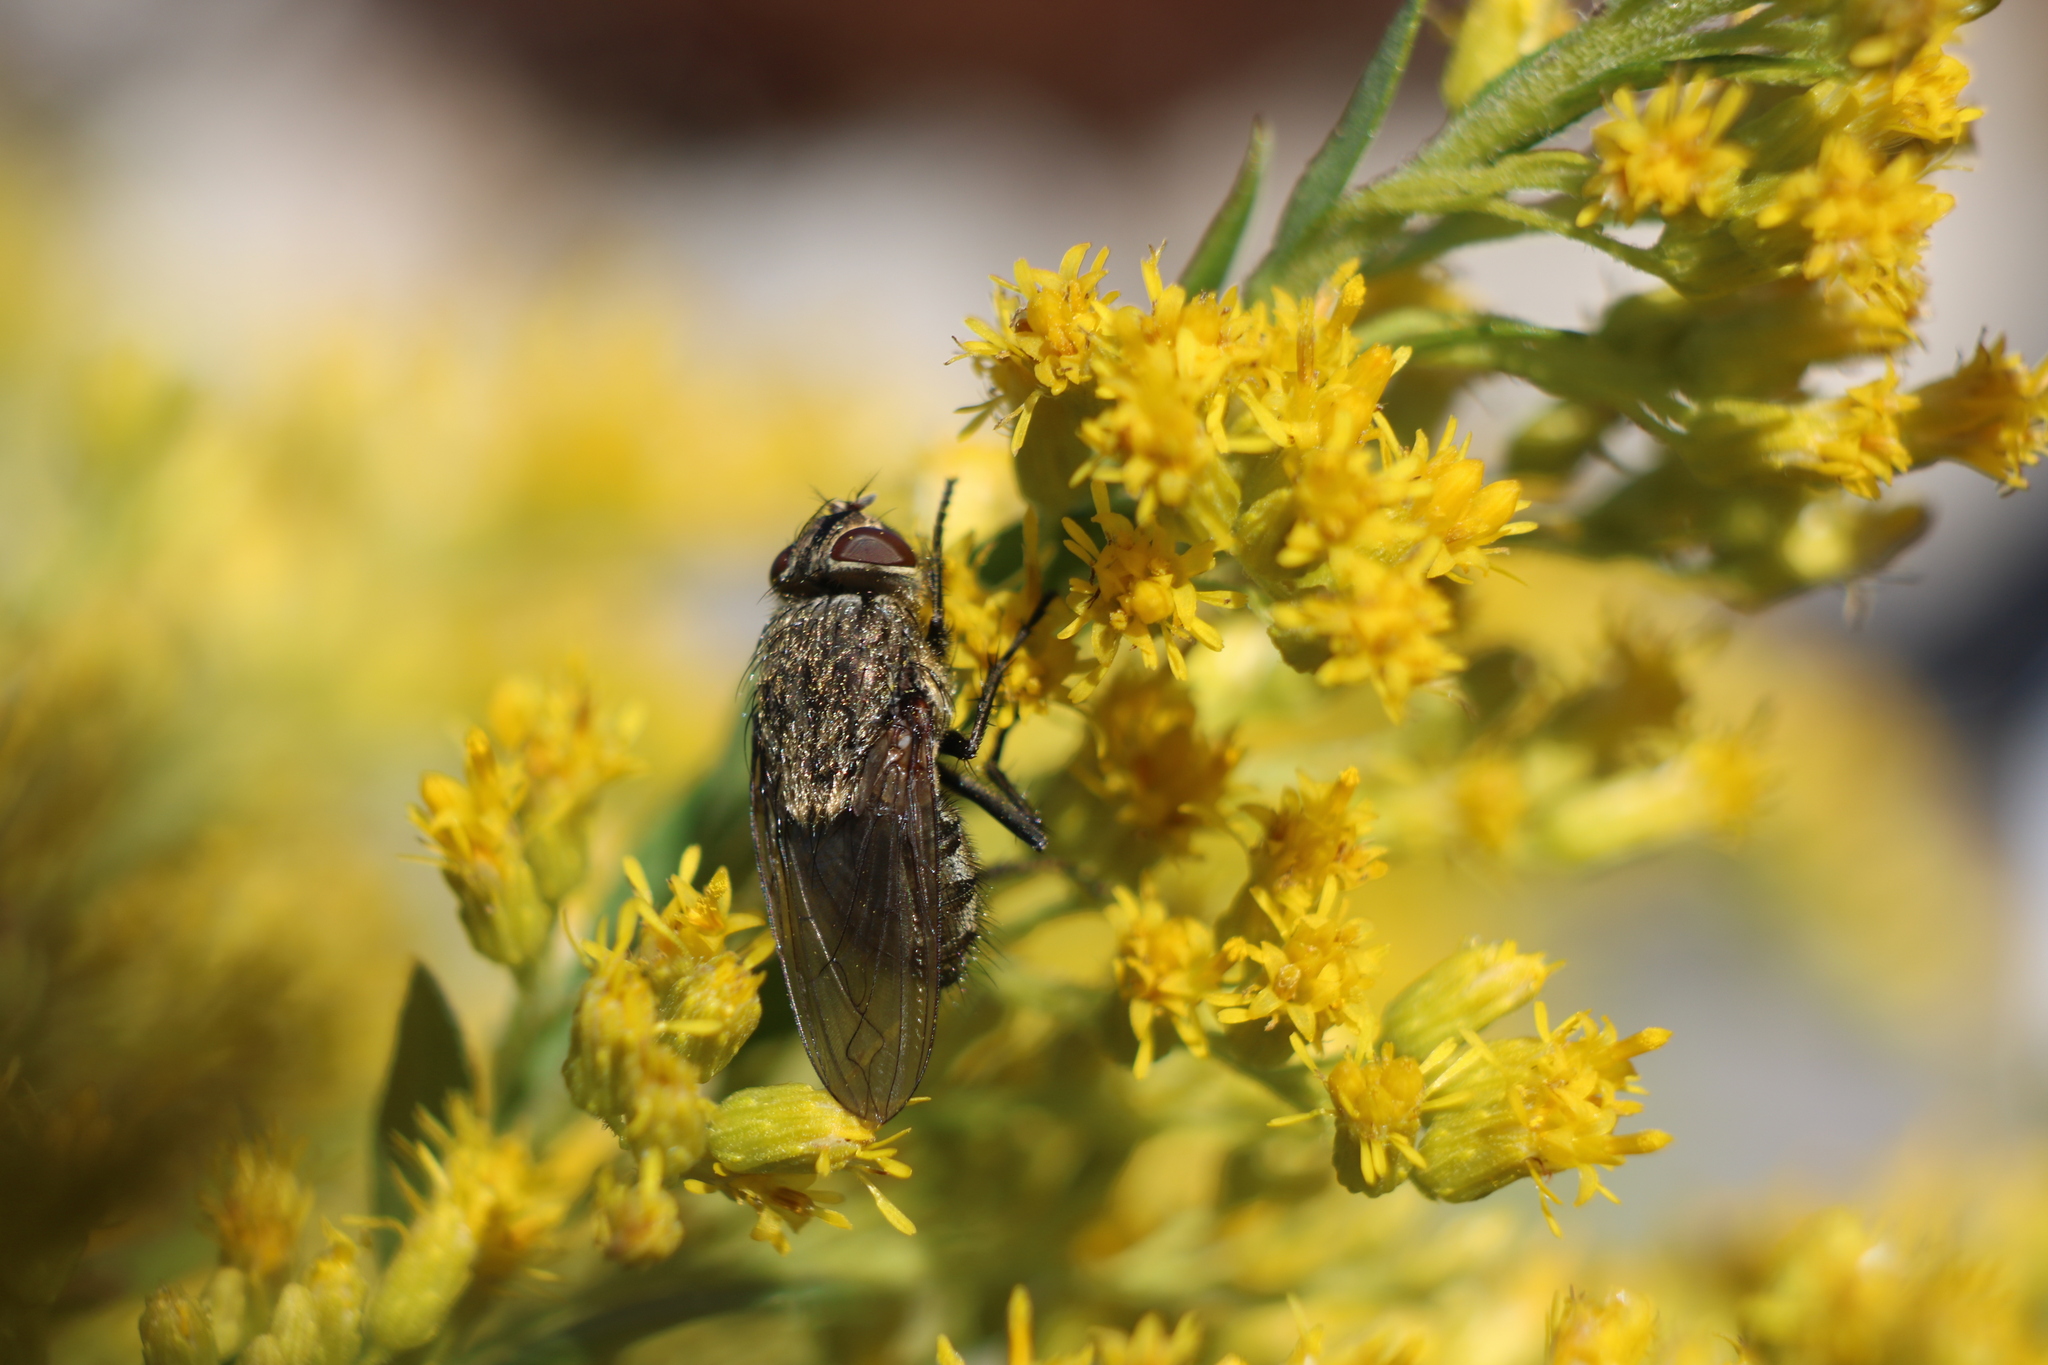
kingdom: Animalia
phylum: Arthropoda
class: Insecta
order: Diptera
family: Polleniidae
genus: Pollenia
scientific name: Pollenia
